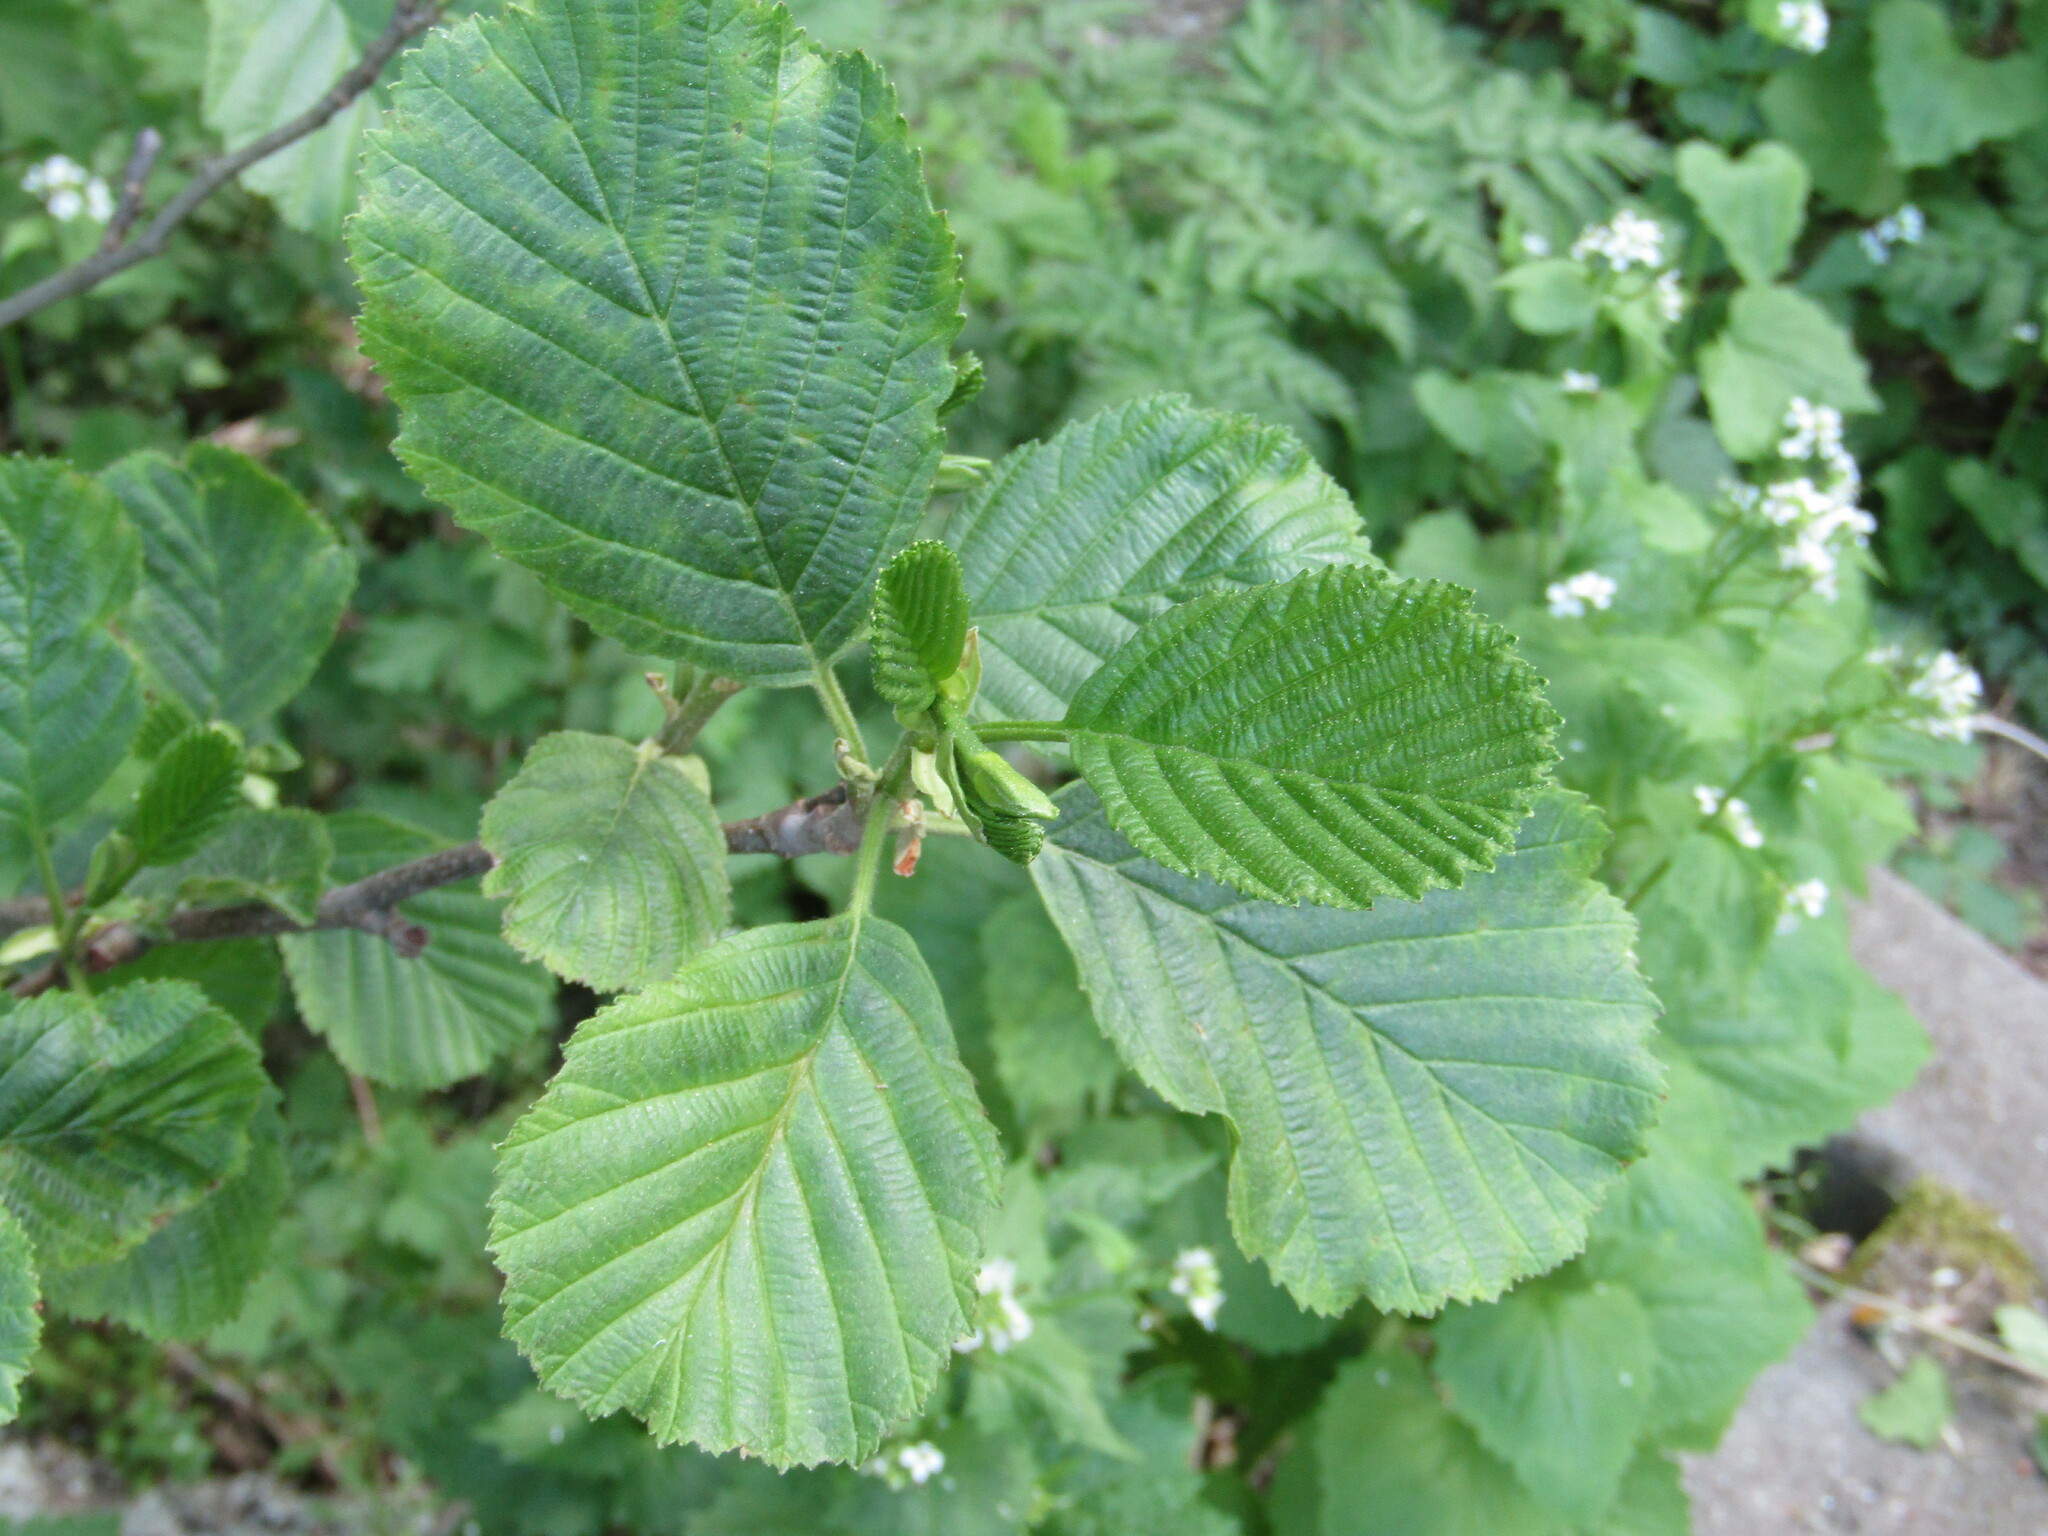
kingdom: Plantae
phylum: Tracheophyta
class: Magnoliopsida
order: Fagales
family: Betulaceae
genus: Alnus
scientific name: Alnus glutinosa
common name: Black alder
